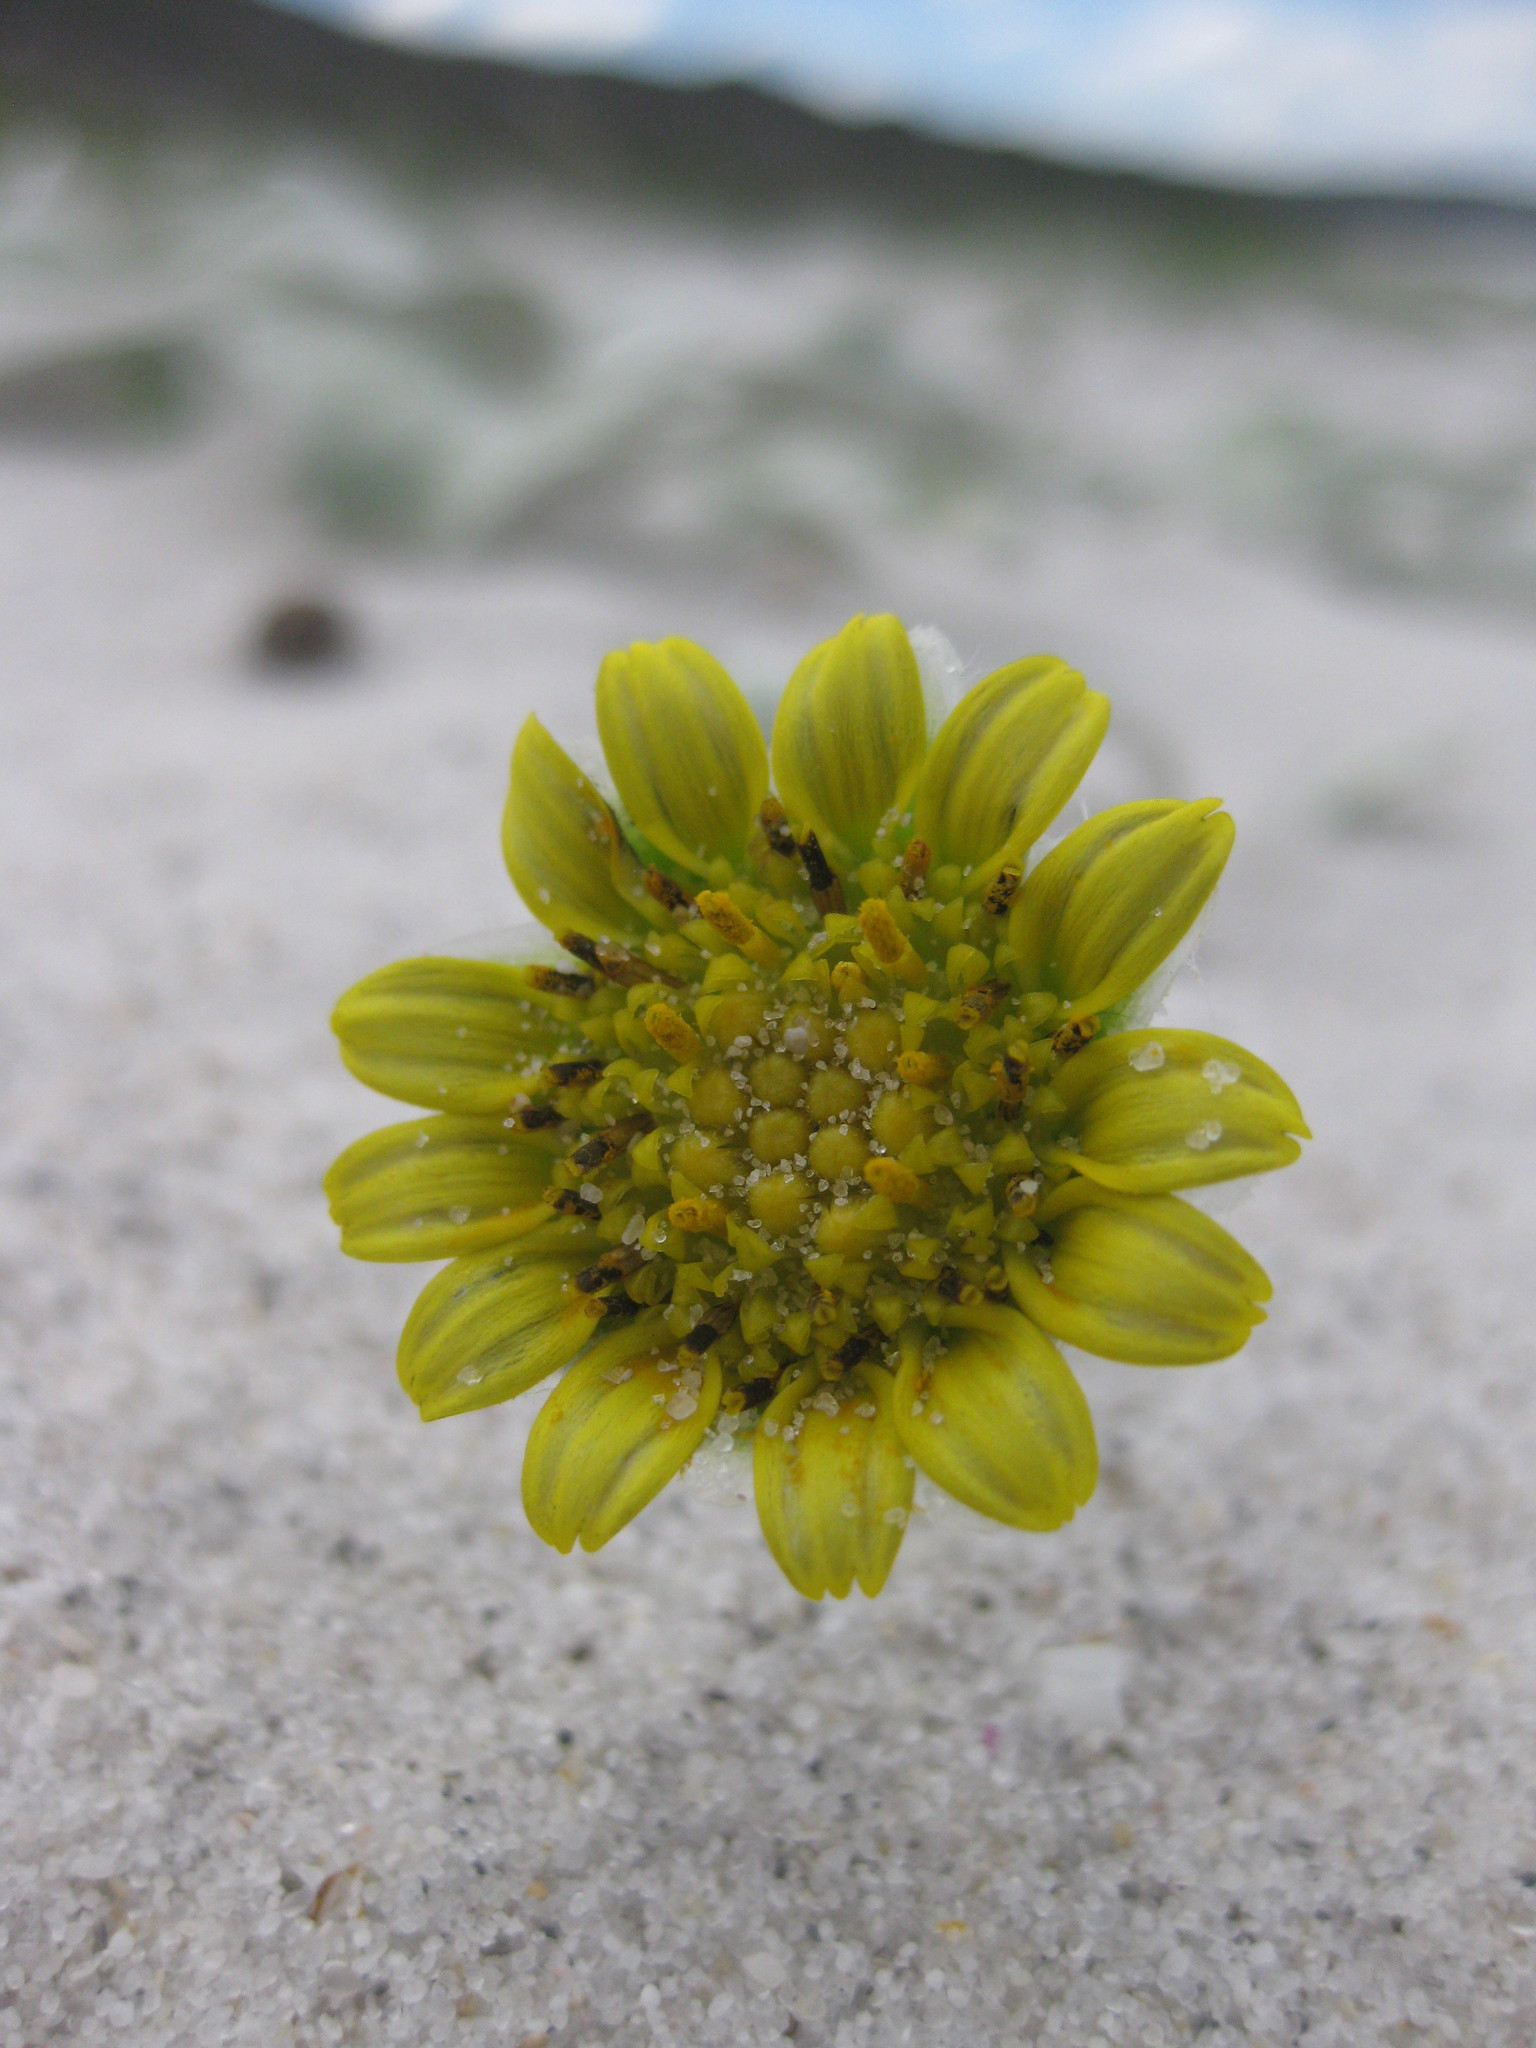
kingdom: Plantae
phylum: Tracheophyta
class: Magnoliopsida
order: Asterales
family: Asteraceae
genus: Arctotheca
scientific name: Arctotheca populifolia
